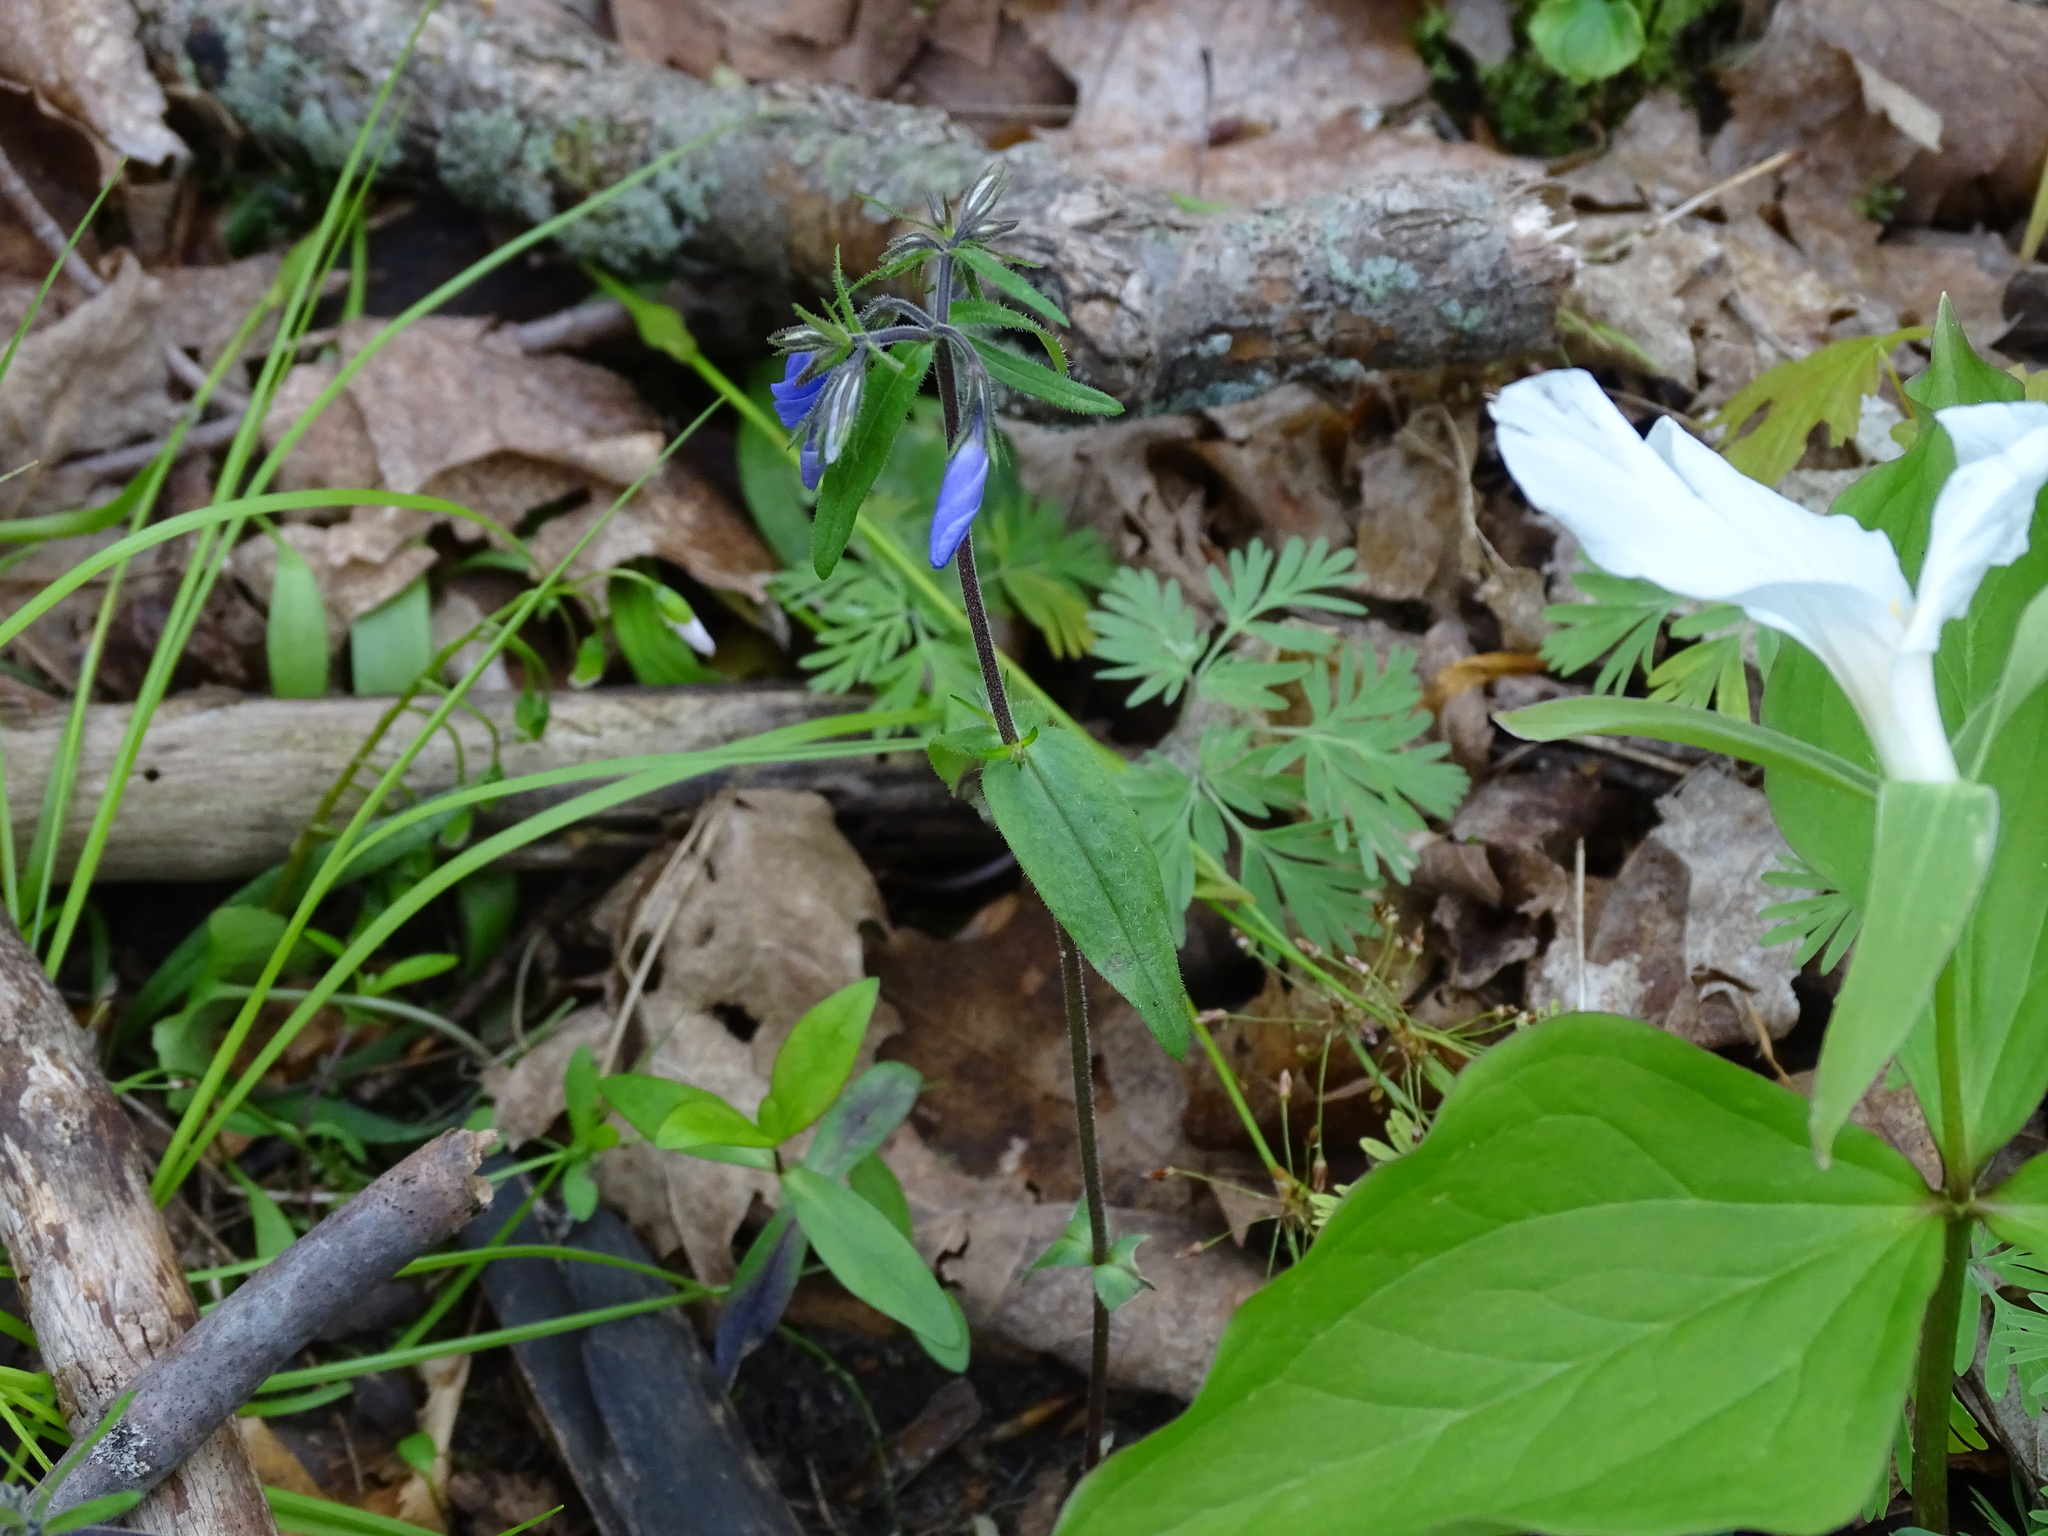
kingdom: Plantae
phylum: Tracheophyta
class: Magnoliopsida
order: Ericales
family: Polemoniaceae
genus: Phlox
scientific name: Phlox divaricata
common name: Blue phlox
